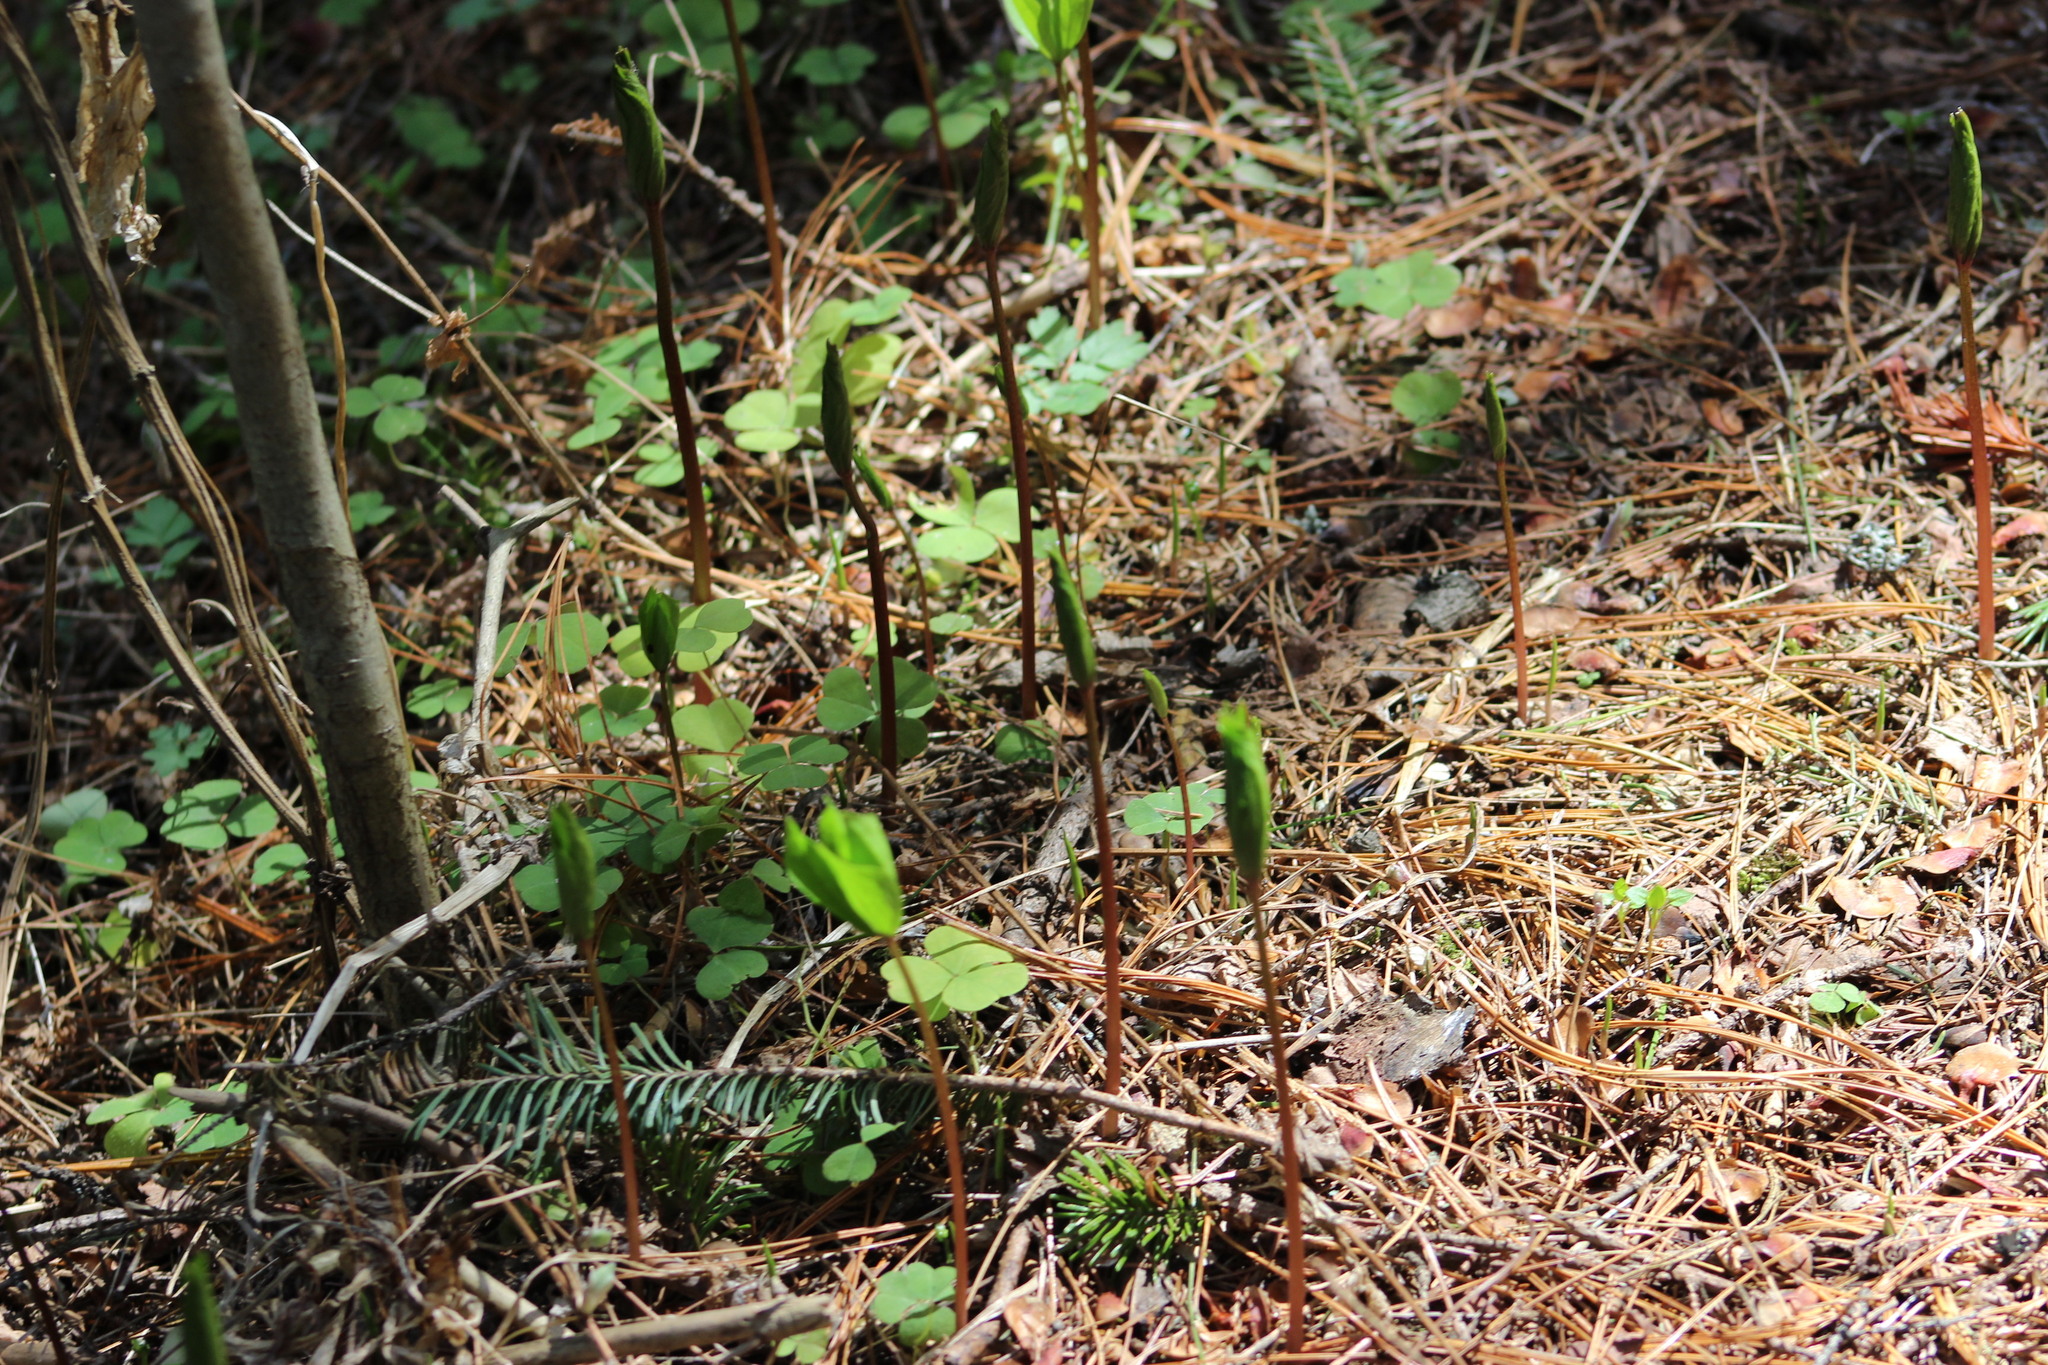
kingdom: Plantae
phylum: Tracheophyta
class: Liliopsida
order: Liliales
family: Melanthiaceae
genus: Paris
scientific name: Paris quadrifolia
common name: Herb-paris
